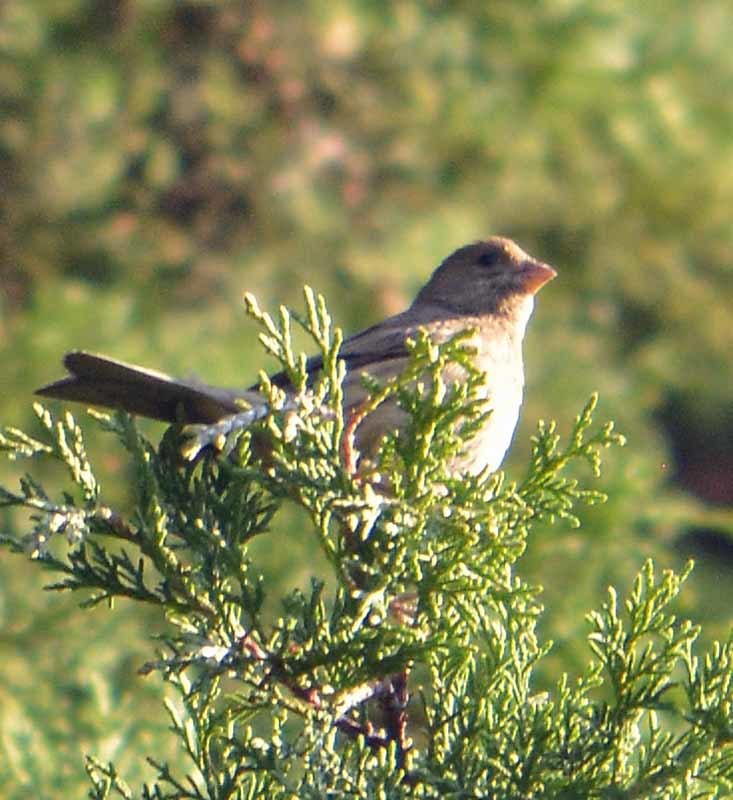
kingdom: Animalia
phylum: Chordata
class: Aves
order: Passeriformes
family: Fringillidae
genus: Haemorhous
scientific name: Haemorhous mexicanus
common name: House finch
